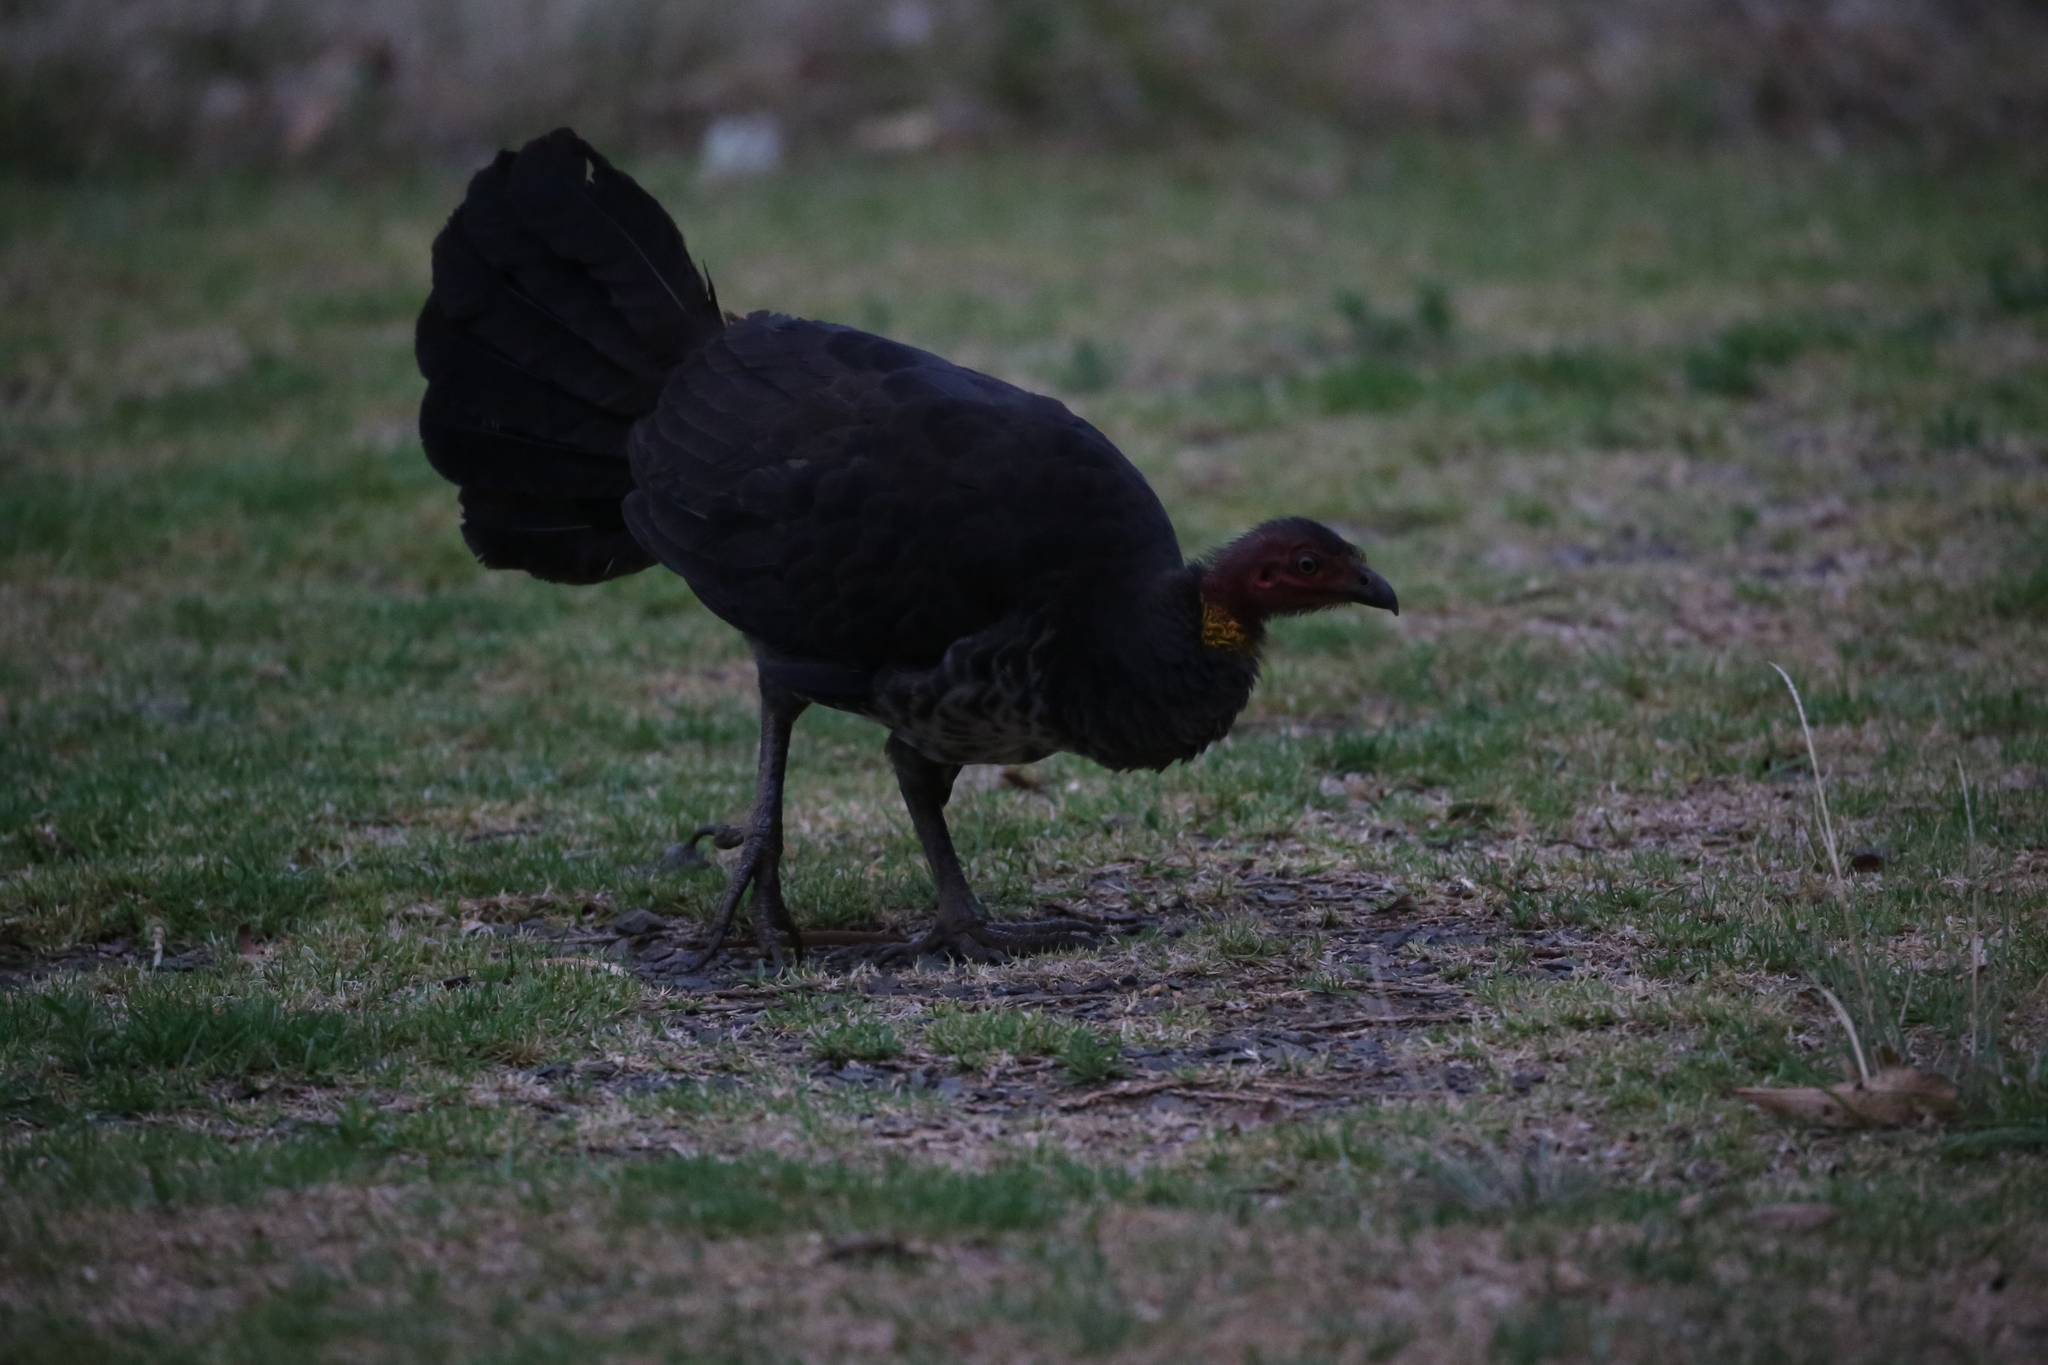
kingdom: Animalia
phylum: Chordata
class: Aves
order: Galliformes
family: Megapodiidae
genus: Alectura
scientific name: Alectura lathami
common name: Australian brushturkey
